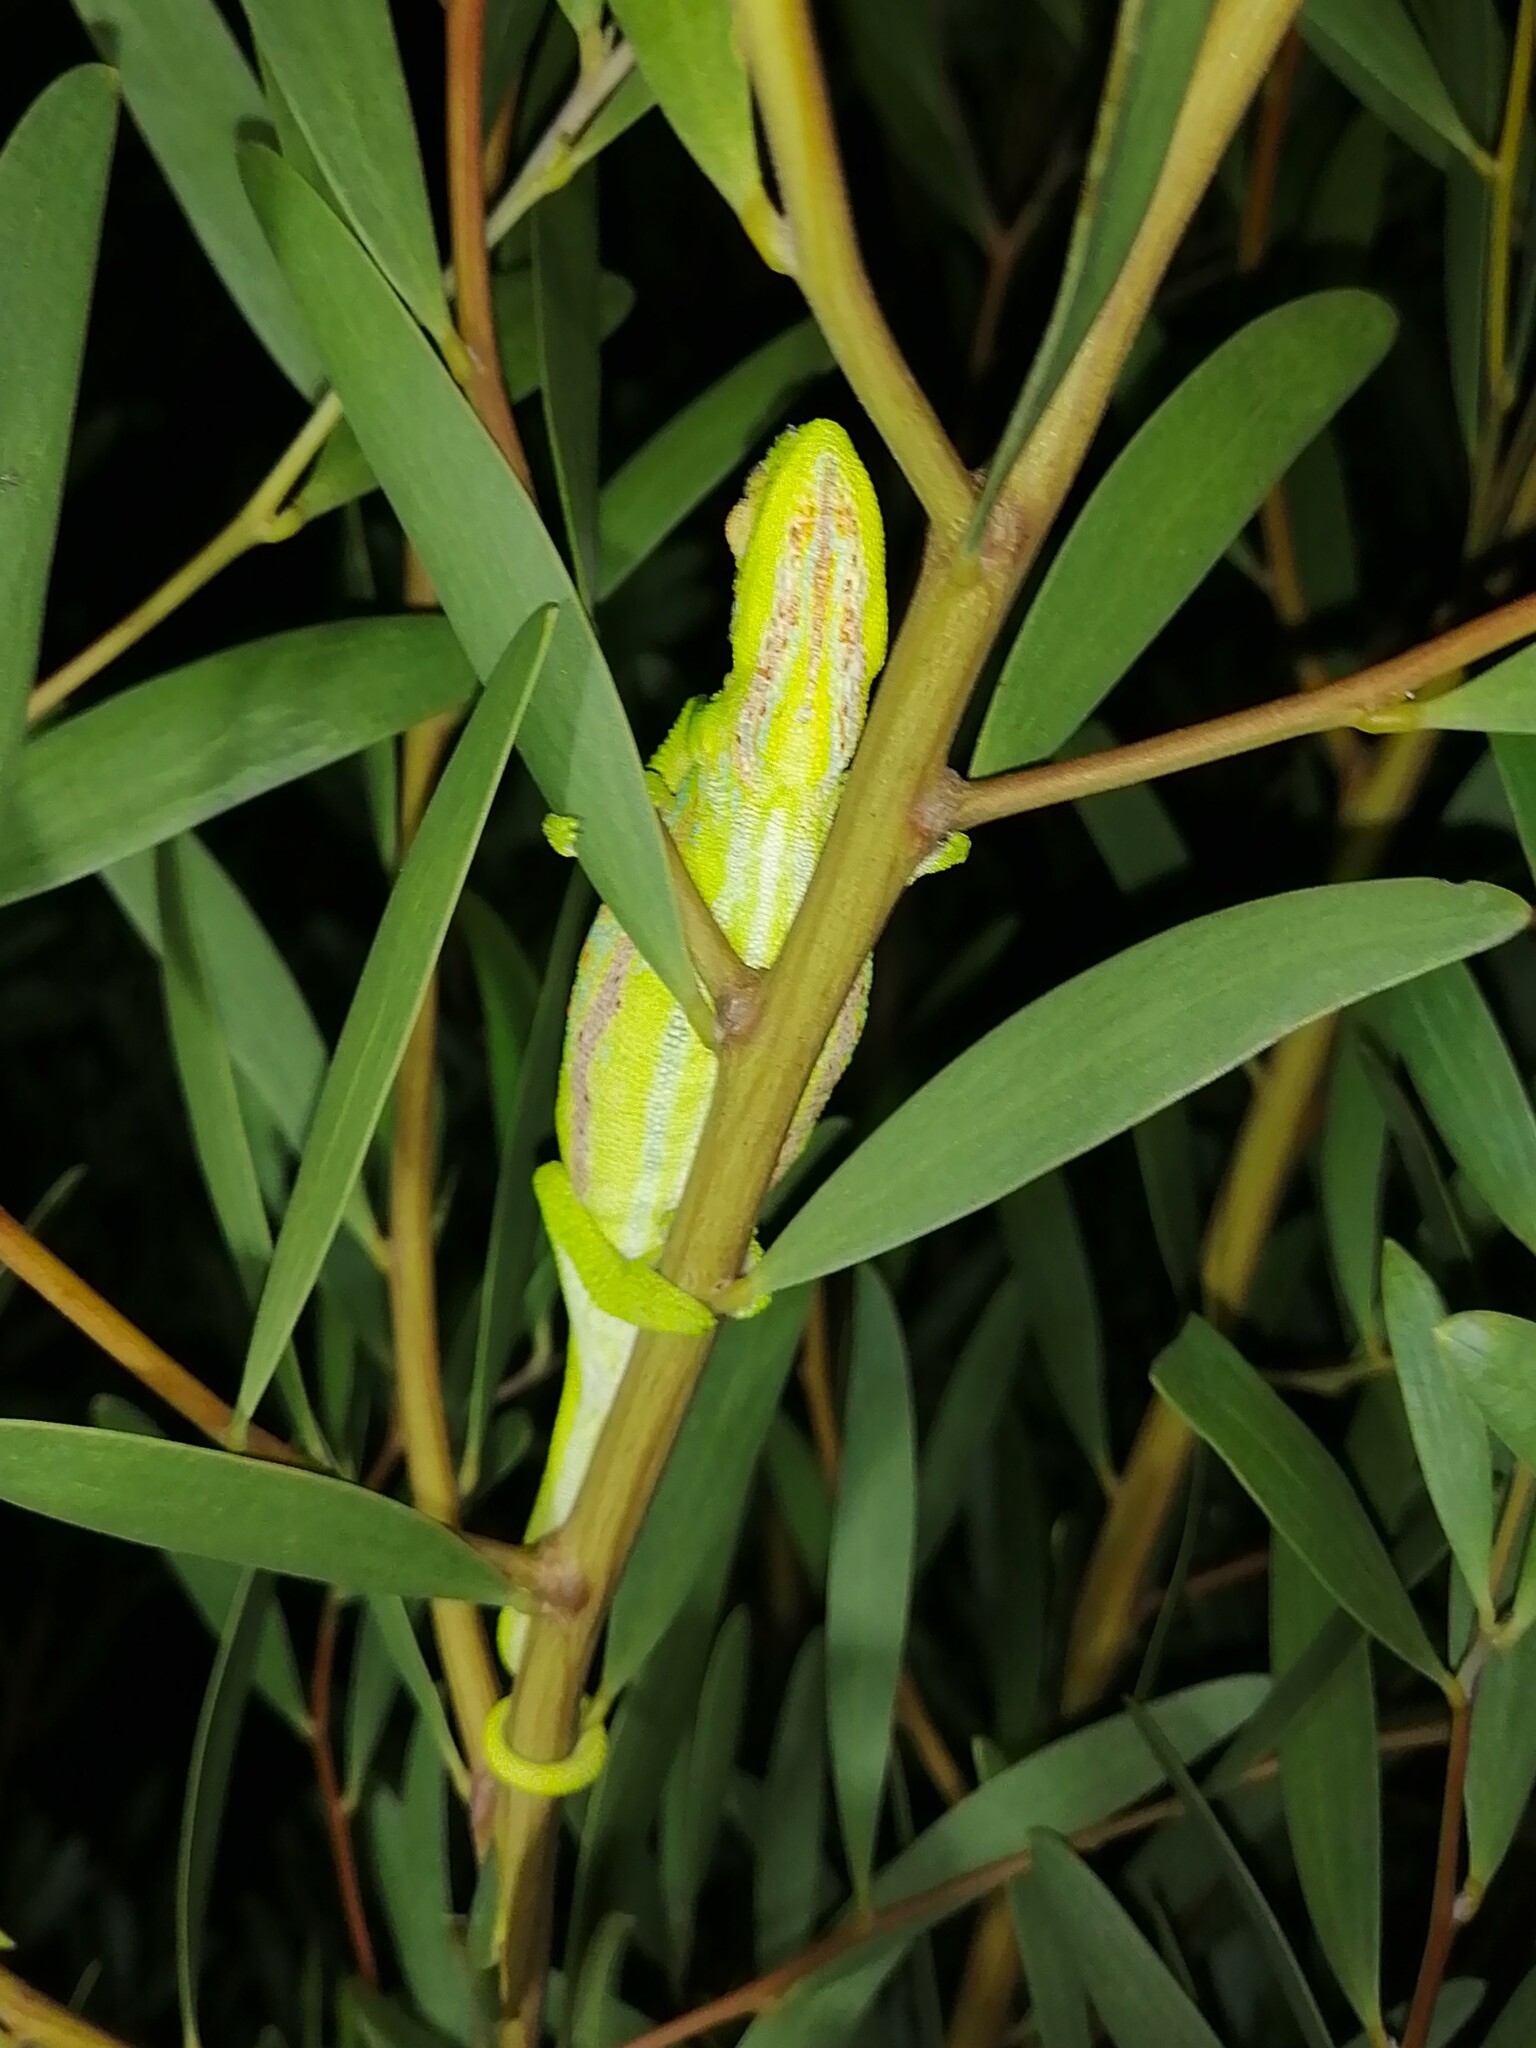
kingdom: Animalia
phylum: Chordata
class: Squamata
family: Chamaeleonidae
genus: Bradypodion
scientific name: Bradypodion pumilum
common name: Cape dwarf chameleon
